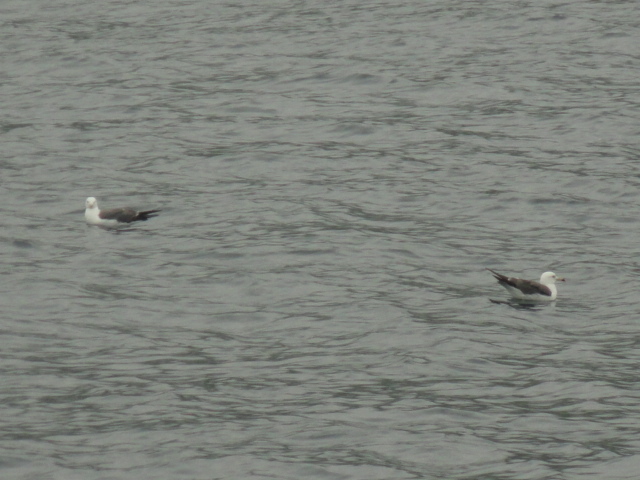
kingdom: Animalia
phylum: Chordata
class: Aves
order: Charadriiformes
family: Laridae
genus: Larus
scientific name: Larus crassirostris
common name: Black-tailed gull
